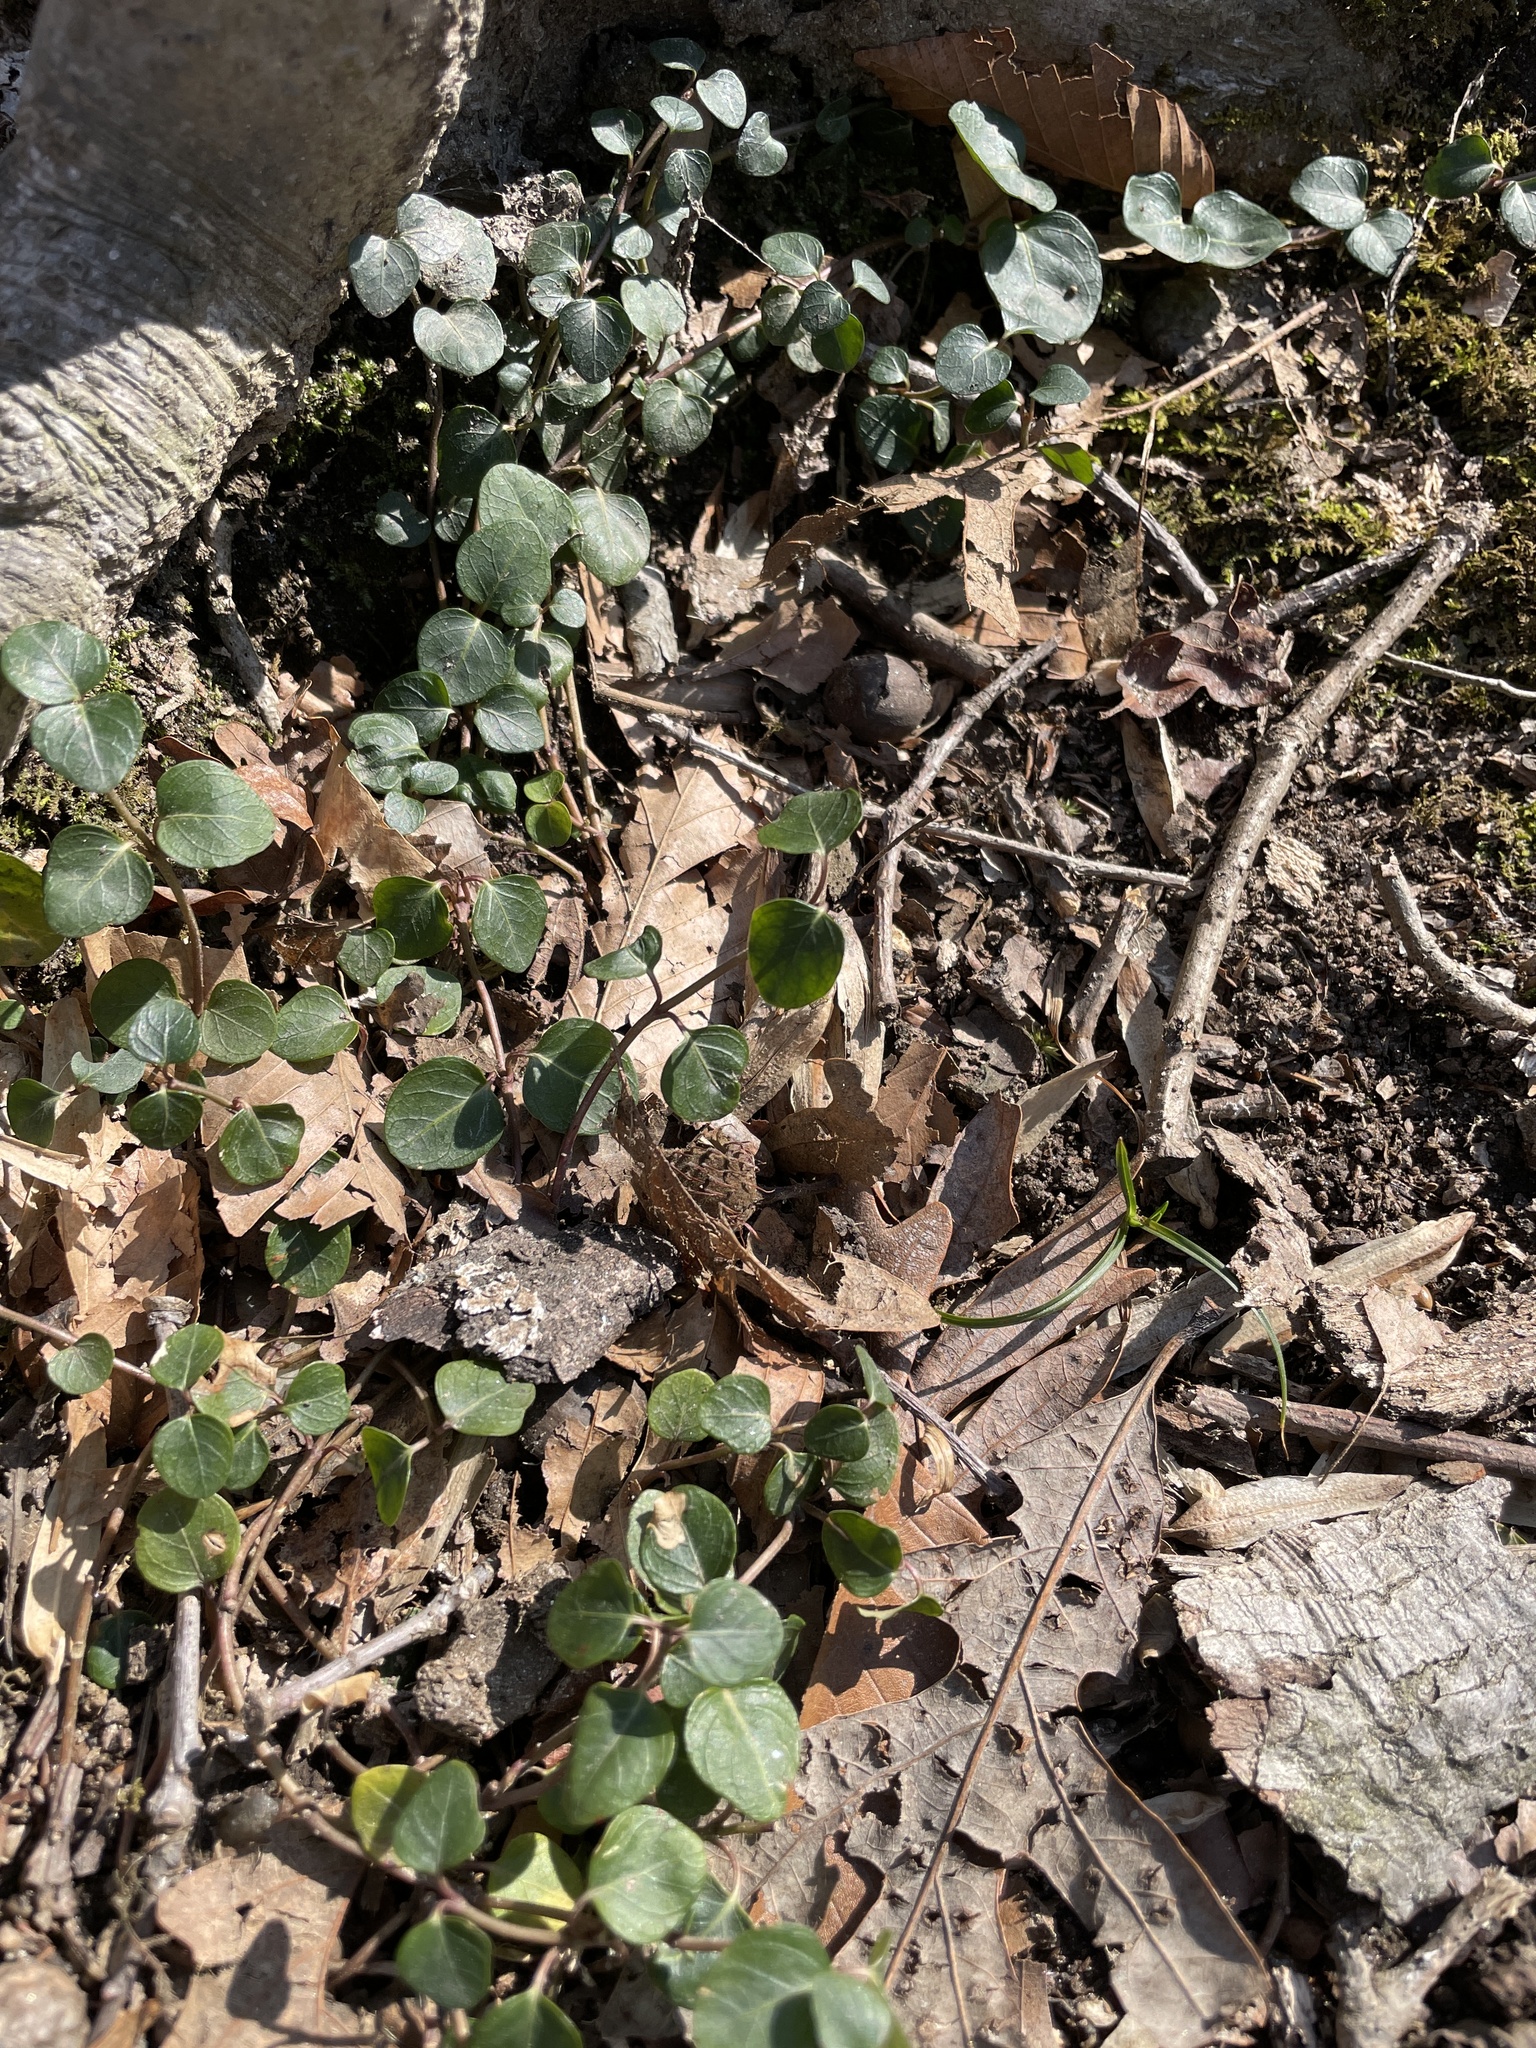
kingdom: Plantae
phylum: Tracheophyta
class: Magnoliopsida
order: Gentianales
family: Rubiaceae
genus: Mitchella
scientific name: Mitchella repens
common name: Partridge-berry
